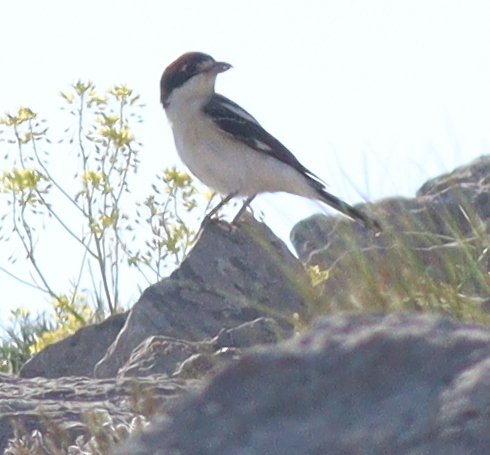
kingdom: Animalia
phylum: Chordata
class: Aves
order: Passeriformes
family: Laniidae
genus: Lanius
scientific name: Lanius senator
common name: Woodchat shrike
